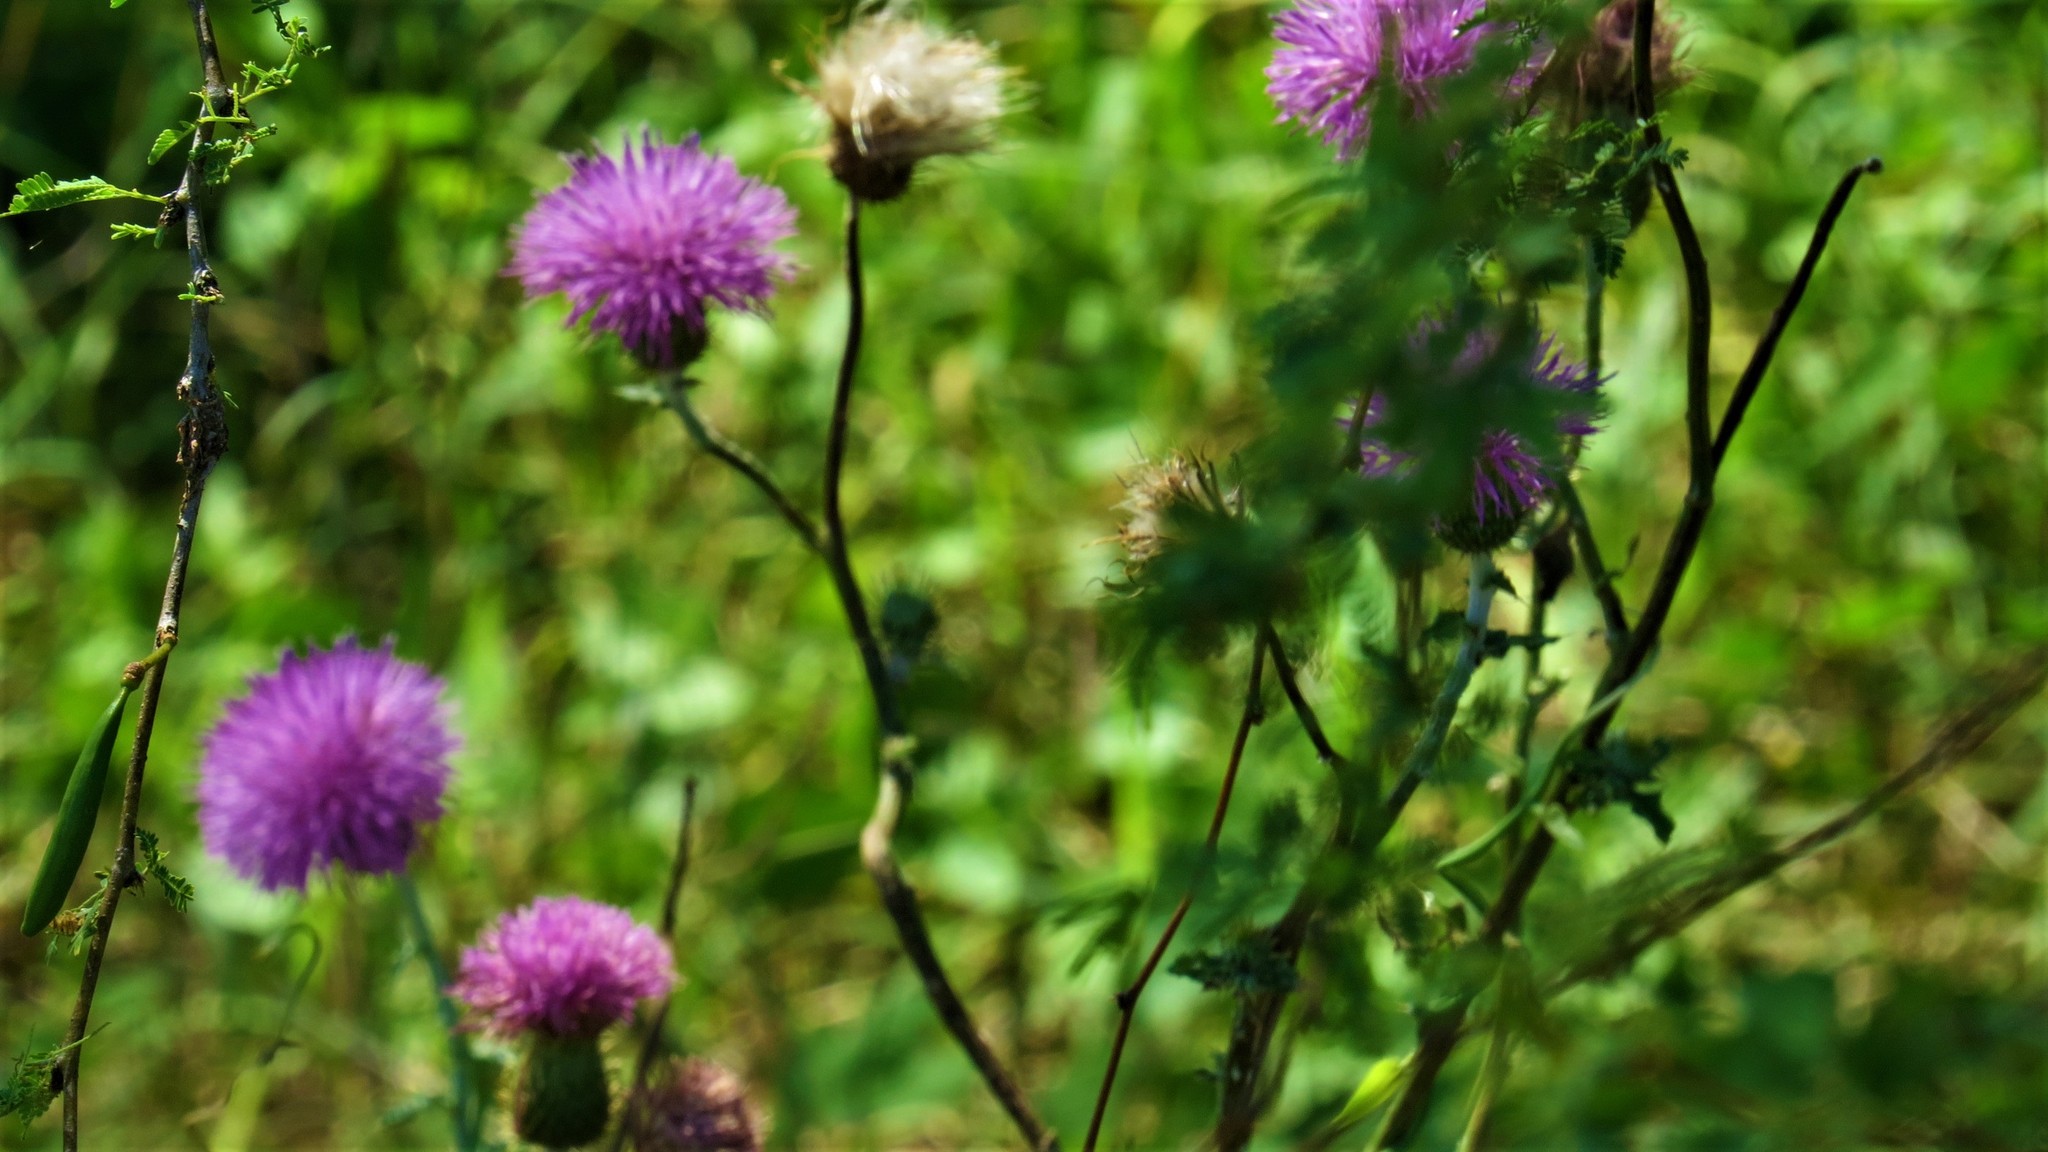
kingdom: Plantae
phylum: Tracheophyta
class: Magnoliopsida
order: Asterales
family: Asteraceae
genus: Cirsium
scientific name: Cirsium texanum
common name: Texas purple thistle
